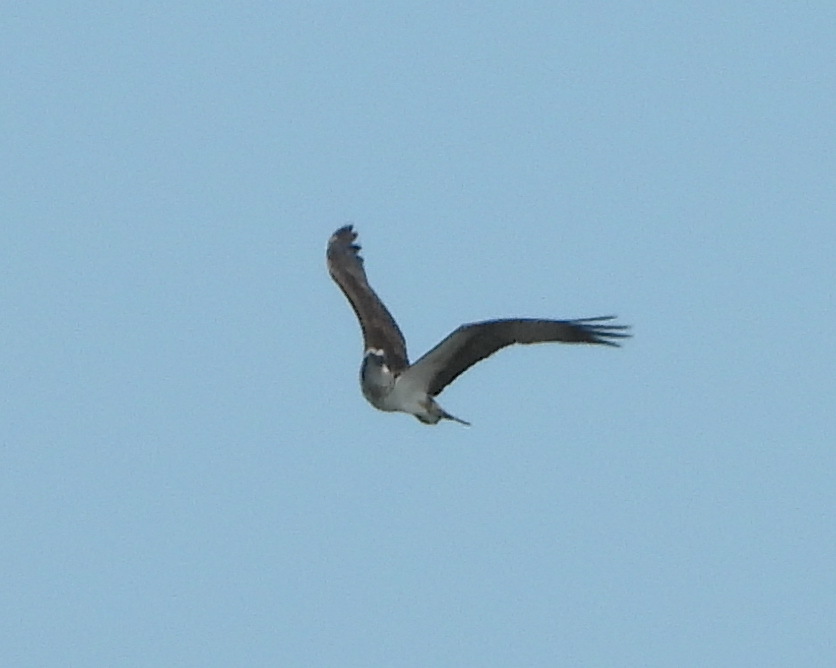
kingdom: Animalia
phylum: Chordata
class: Aves
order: Accipitriformes
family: Pandionidae
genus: Pandion
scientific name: Pandion haliaetus
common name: Osprey
